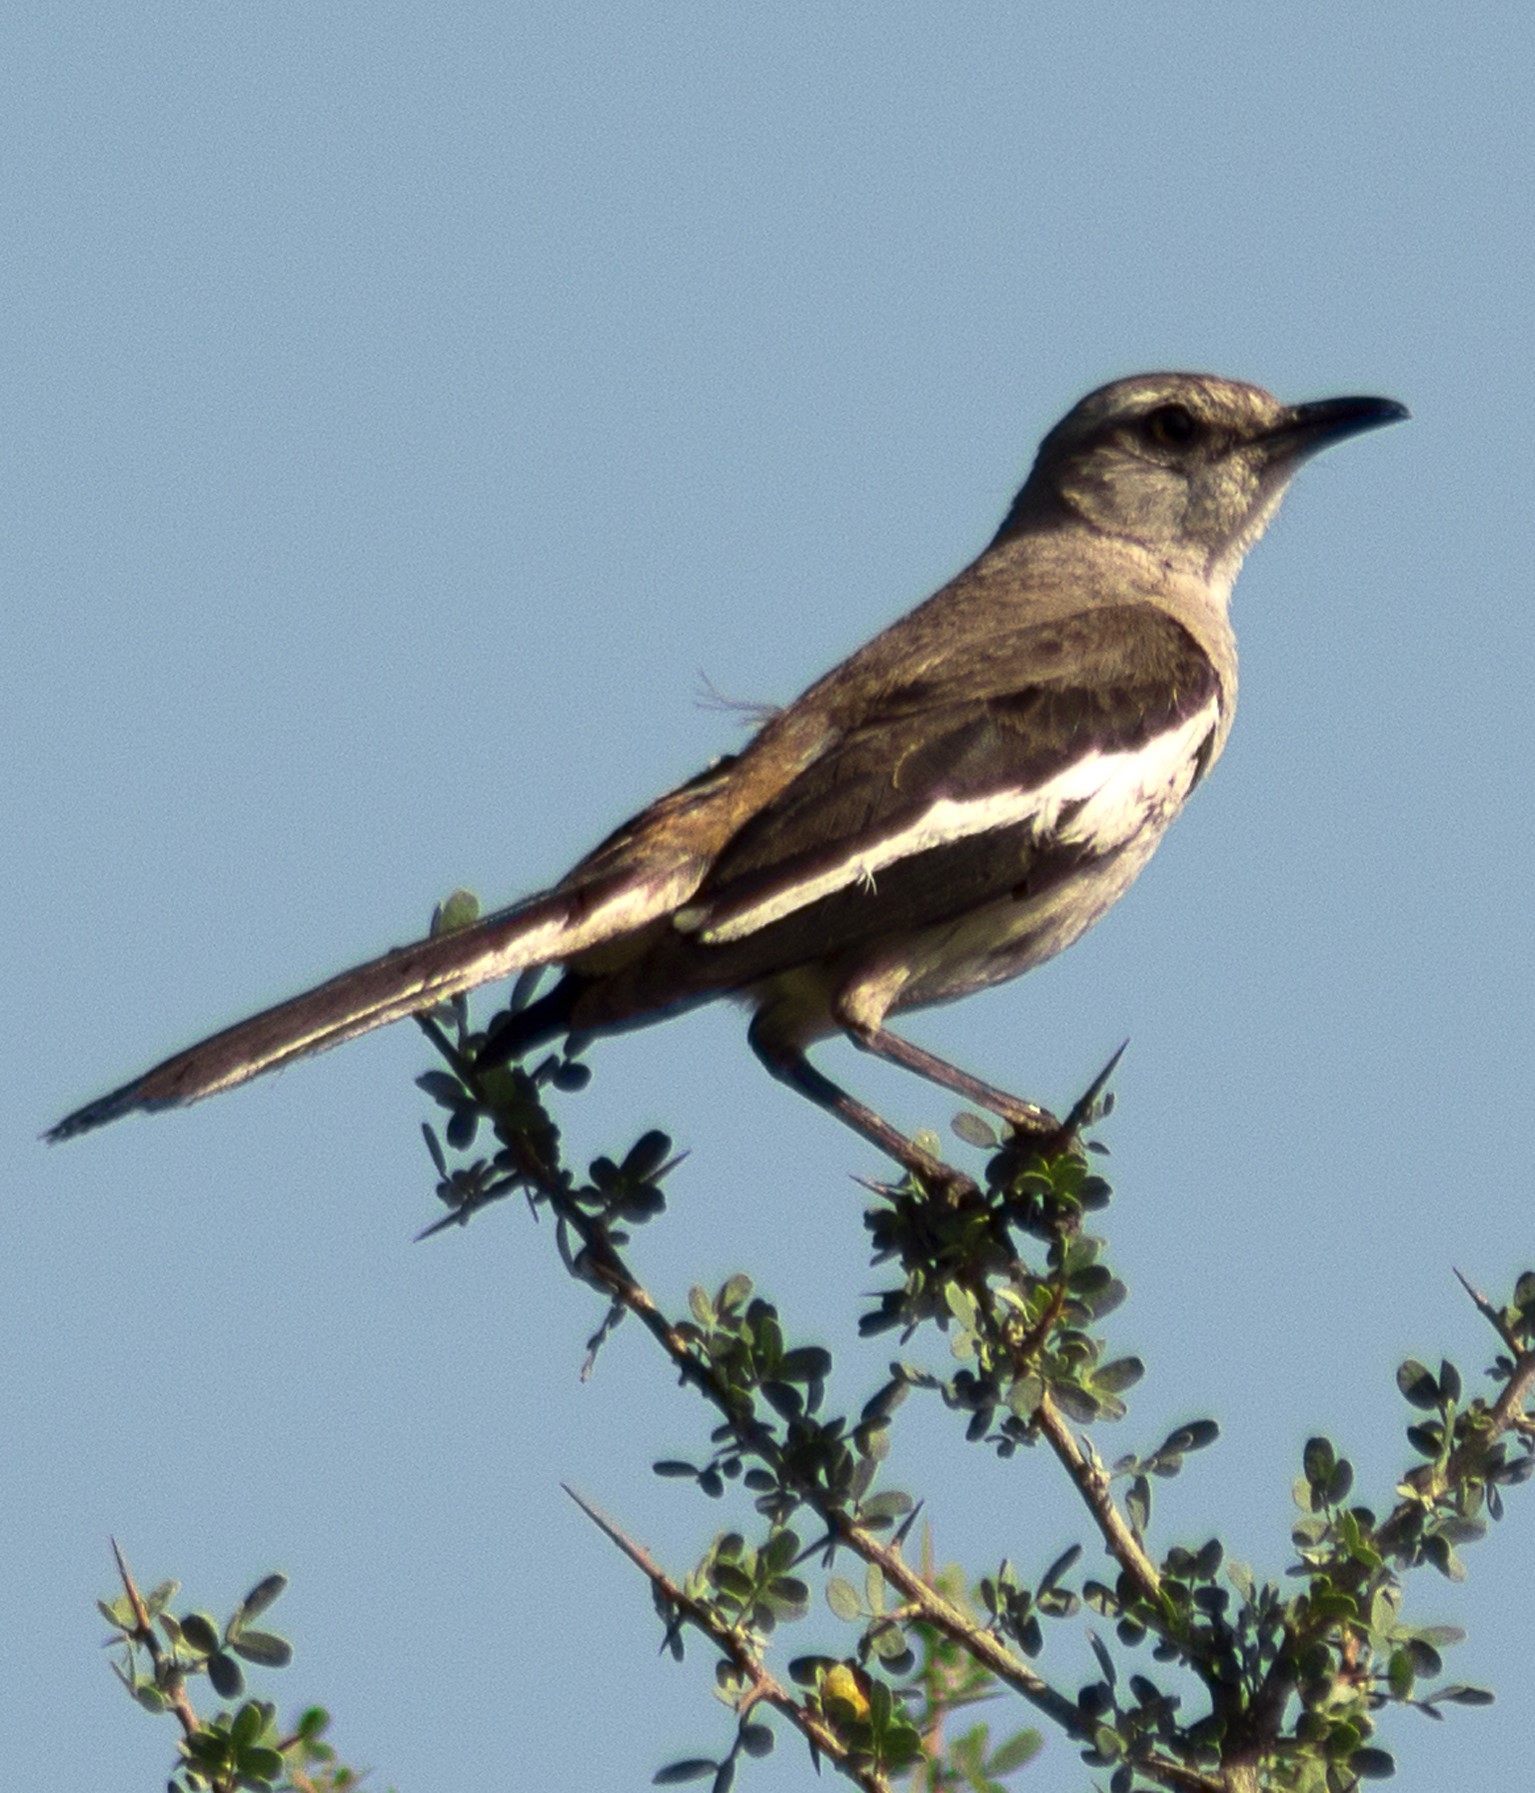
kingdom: Animalia
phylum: Chordata
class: Aves
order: Passeriformes
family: Mimidae
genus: Mimus
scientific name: Mimus triurus
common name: White-banded mockingbird
